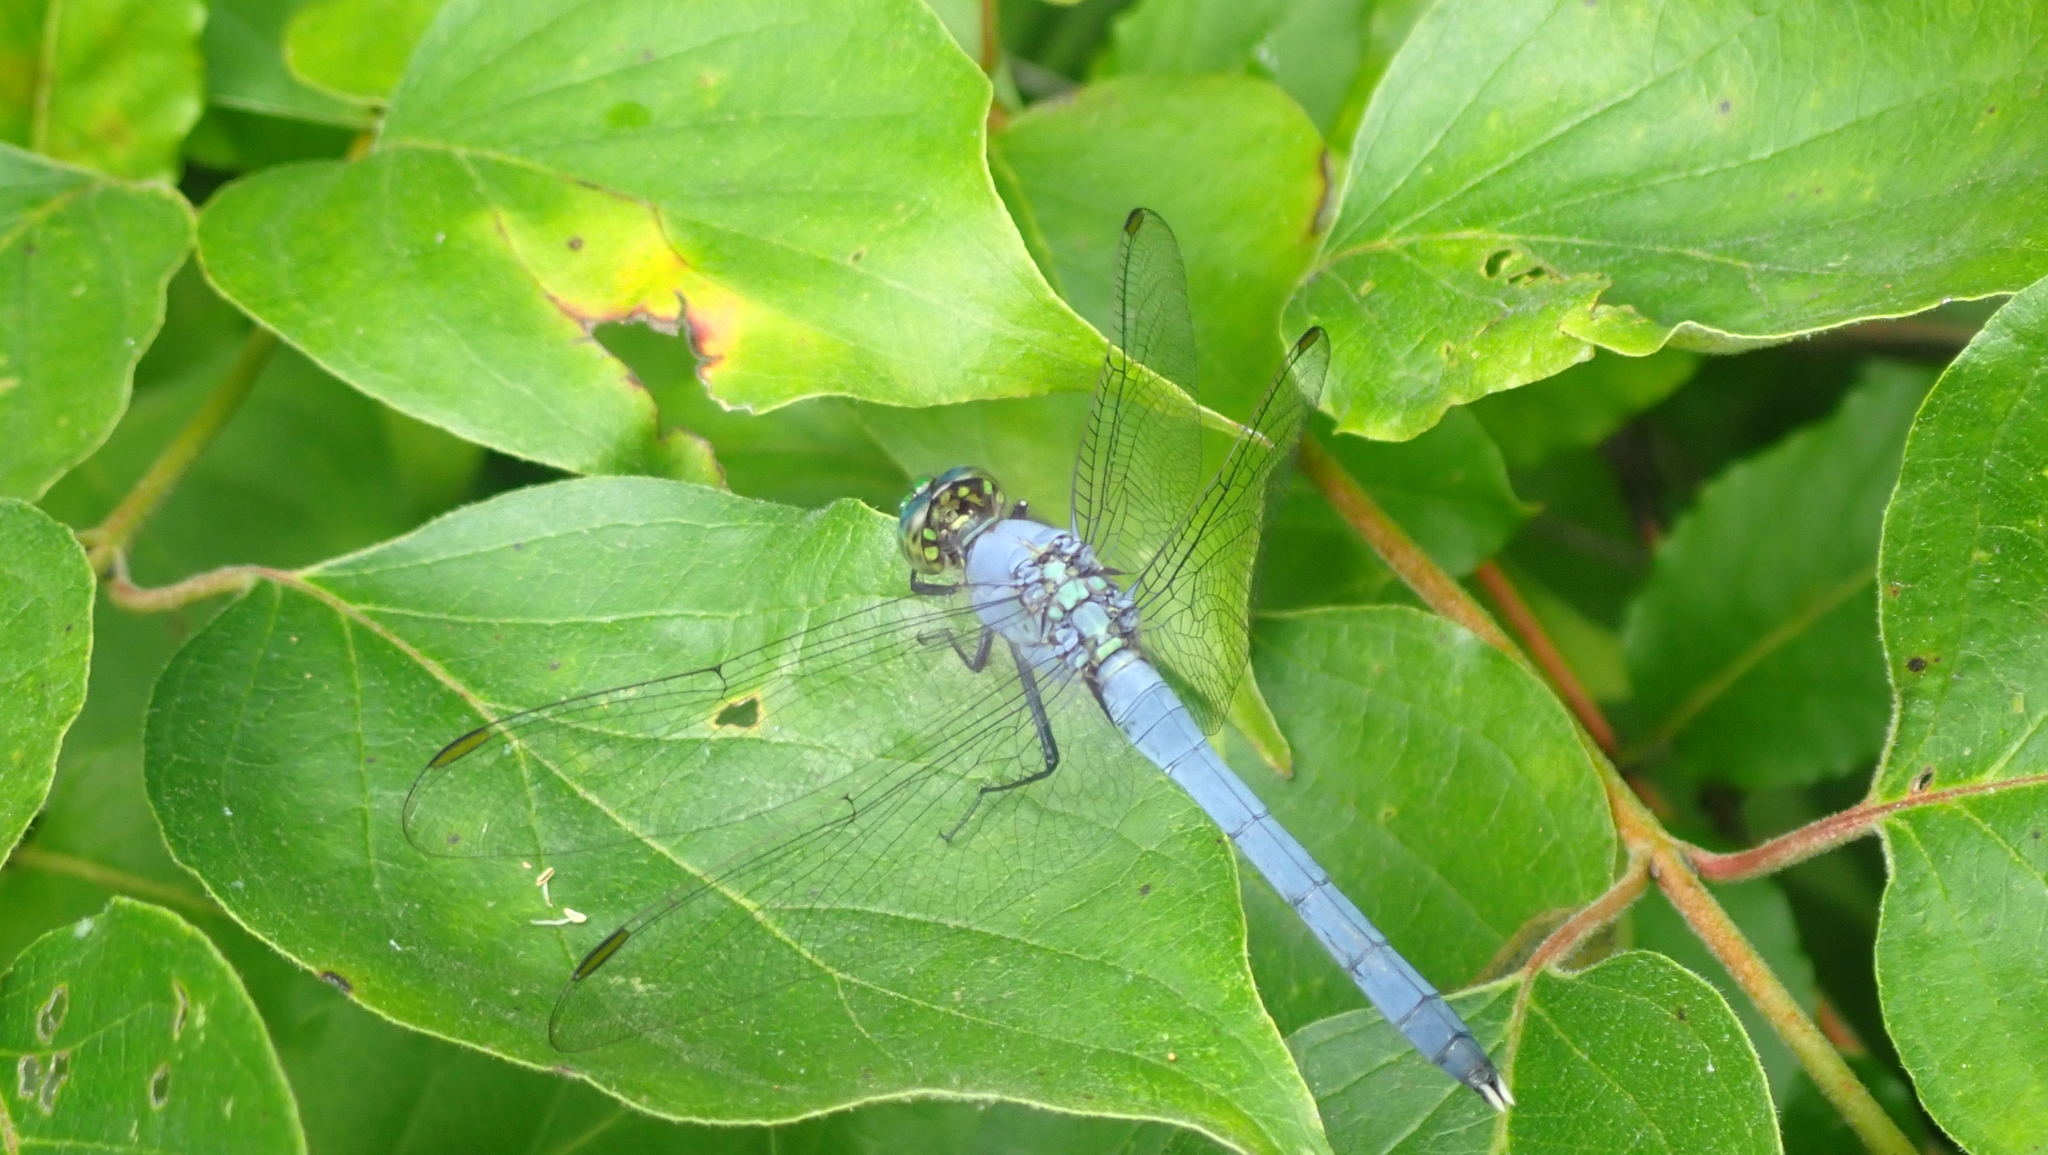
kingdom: Animalia
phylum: Arthropoda
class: Insecta
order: Odonata
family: Libellulidae
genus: Erythemis
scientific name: Erythemis simplicicollis
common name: Eastern pondhawk
